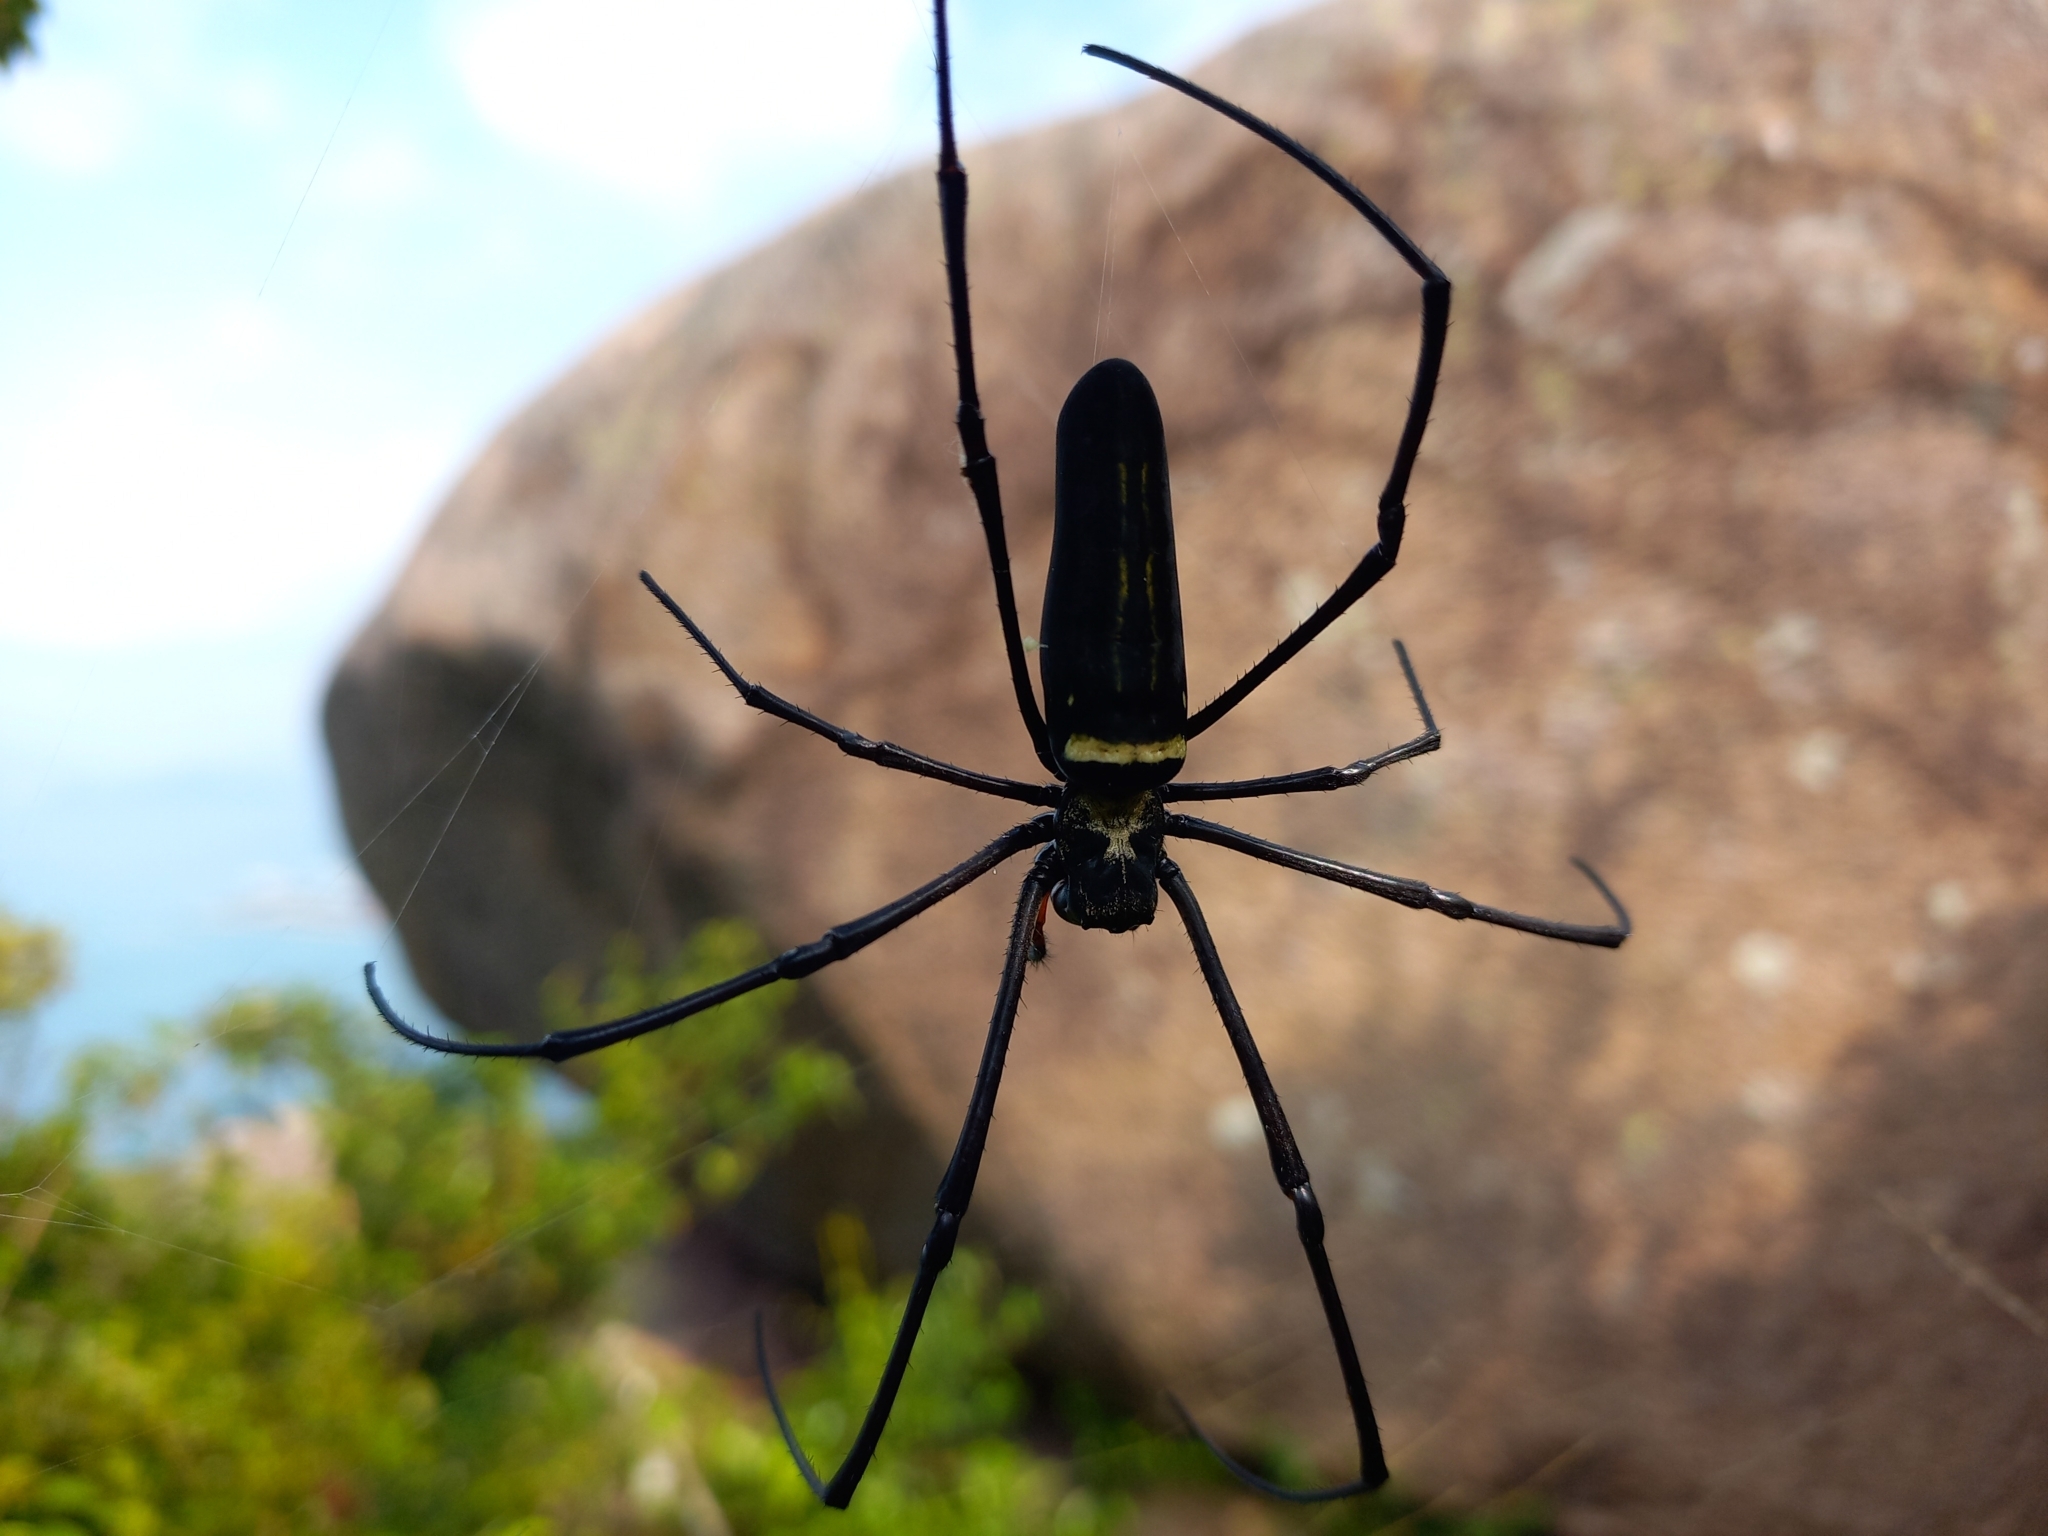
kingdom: Animalia
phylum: Arthropoda
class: Arachnida
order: Araneae
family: Araneidae
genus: Nephila
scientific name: Nephila pilipes
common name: Giant golden orb weaver
